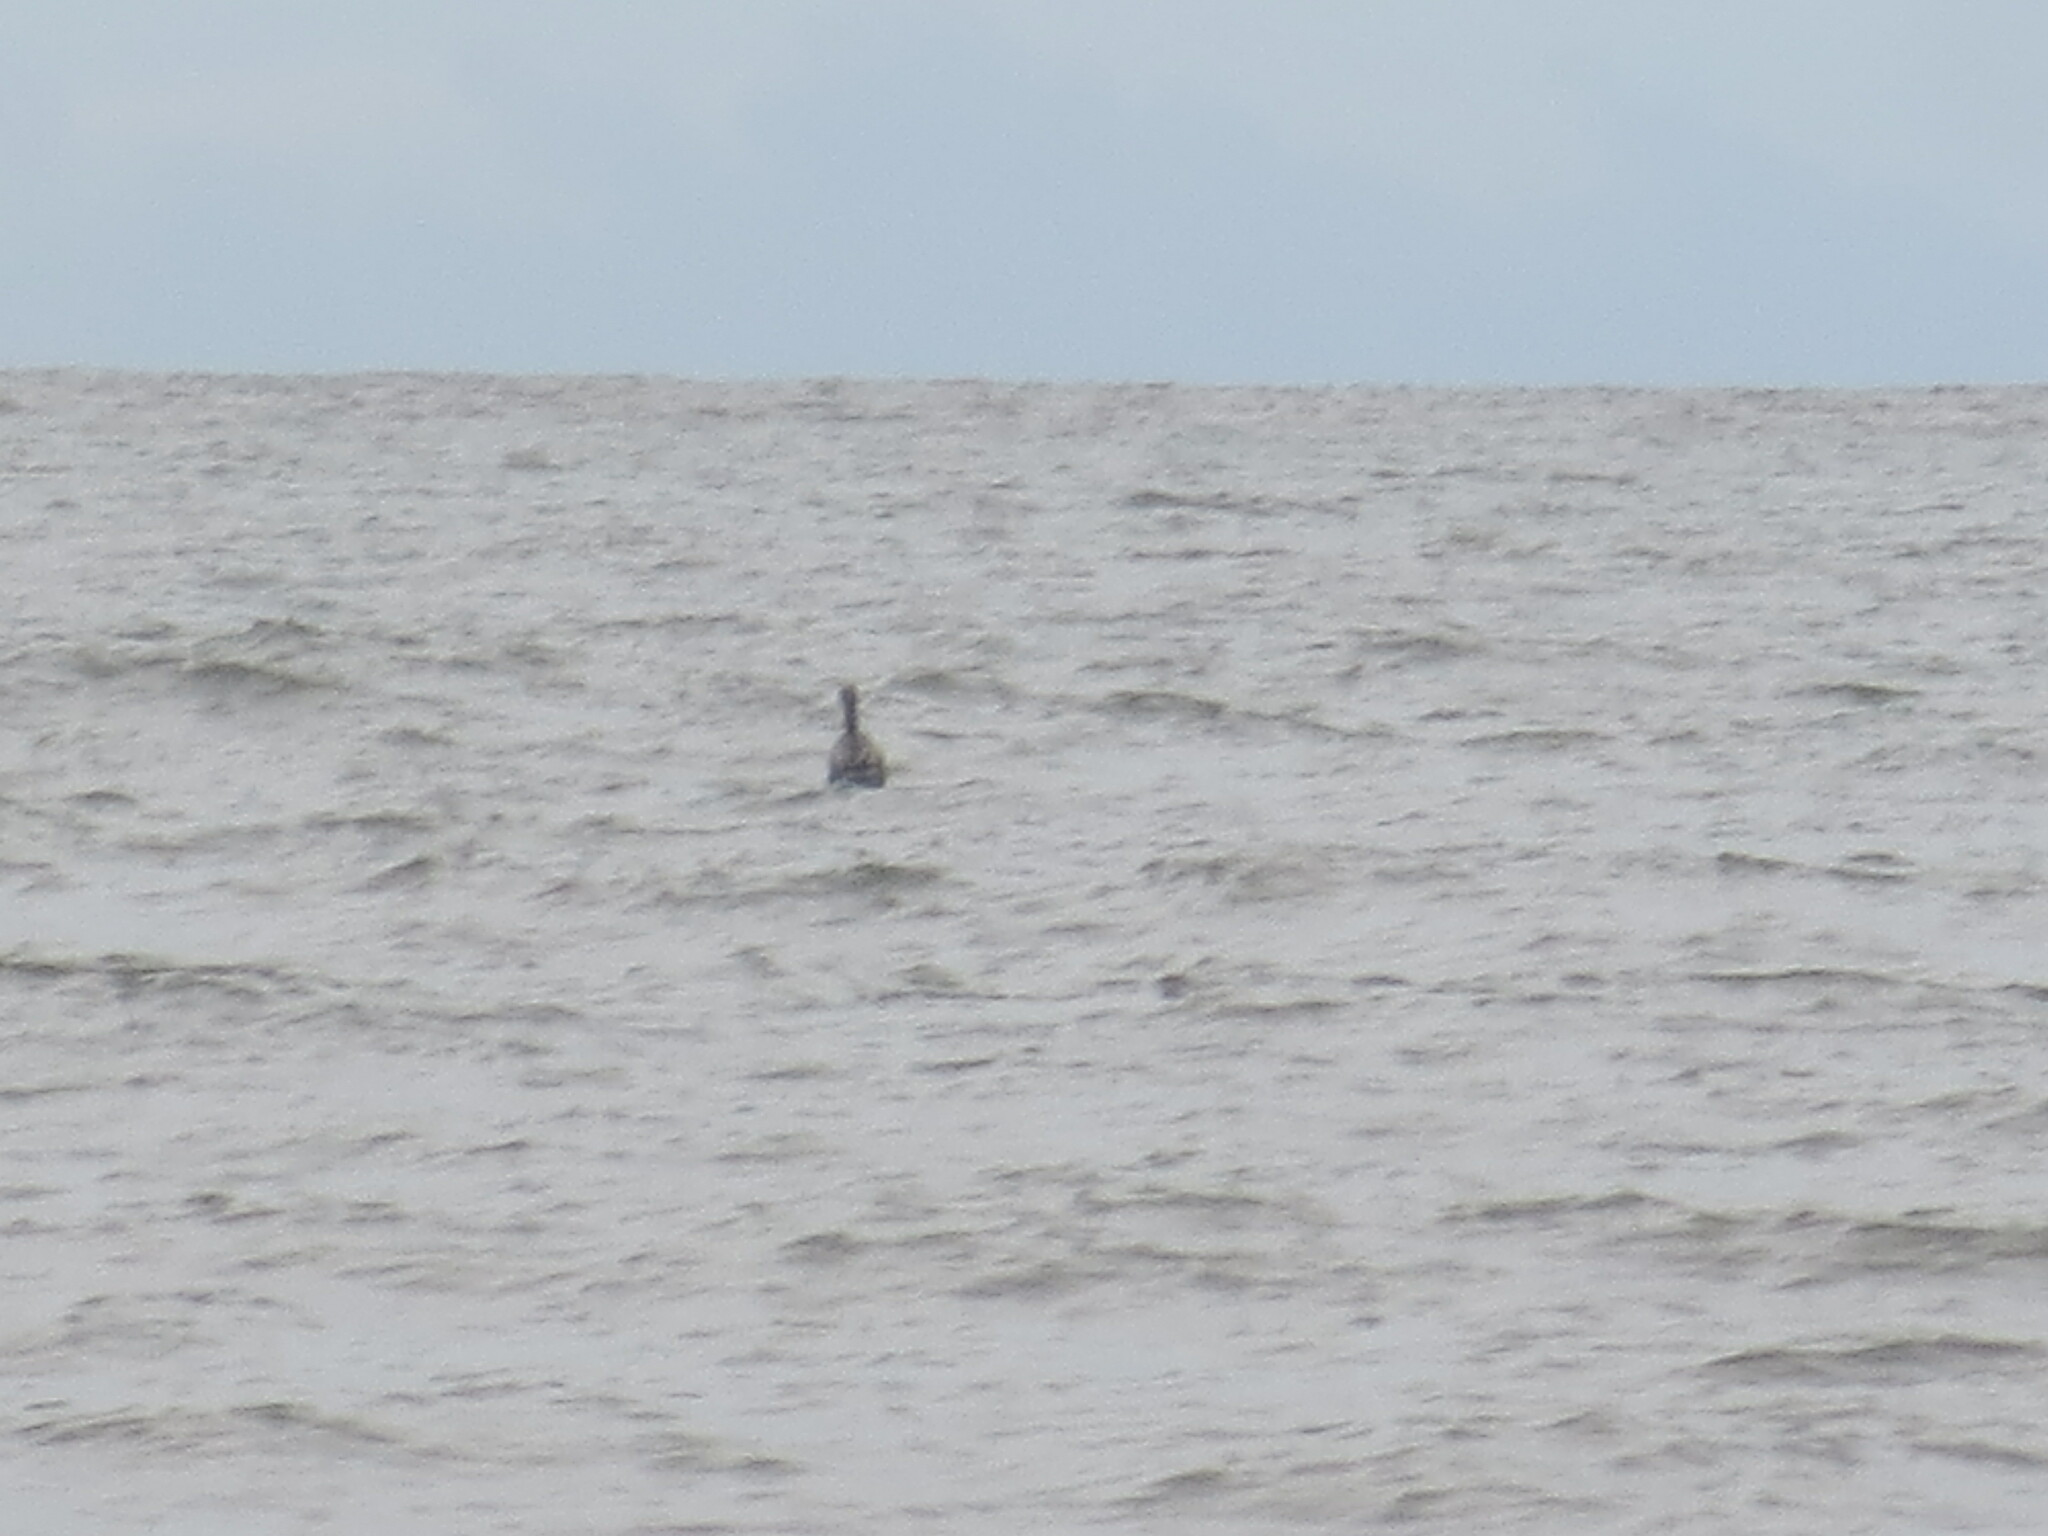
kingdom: Animalia
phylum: Chordata
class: Aves
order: Pelecaniformes
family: Pelecanidae
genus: Pelecanus
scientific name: Pelecanus occidentalis
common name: Brown pelican
